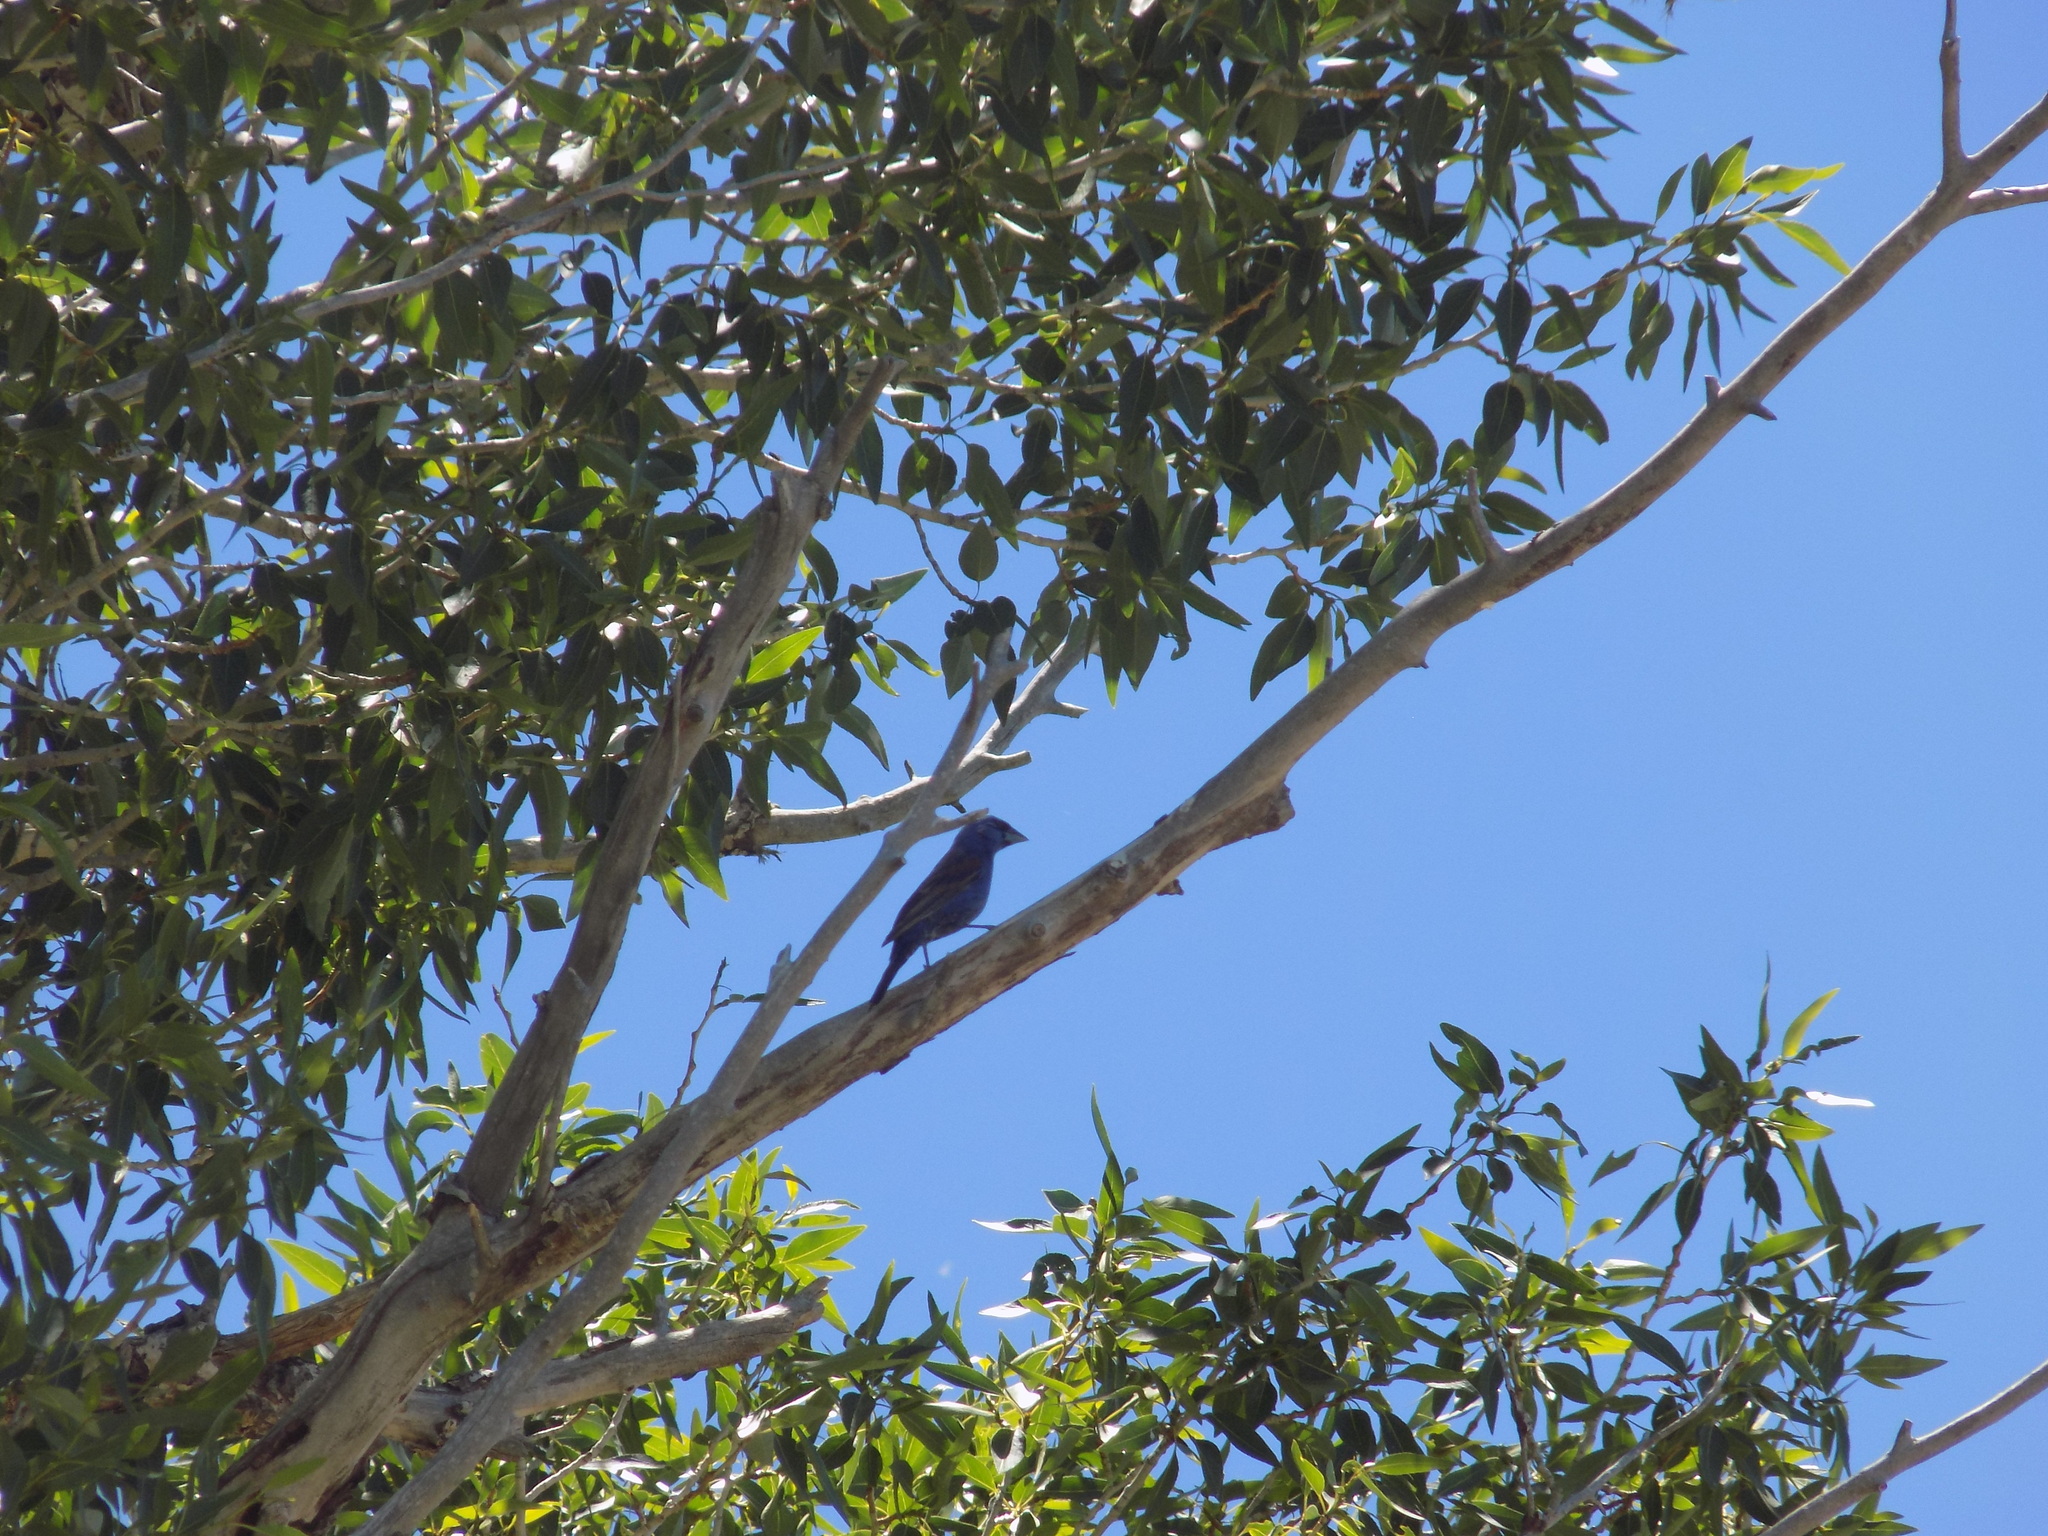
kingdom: Animalia
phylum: Chordata
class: Aves
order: Passeriformes
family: Cardinalidae
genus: Passerina
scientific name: Passerina caerulea
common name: Blue grosbeak
